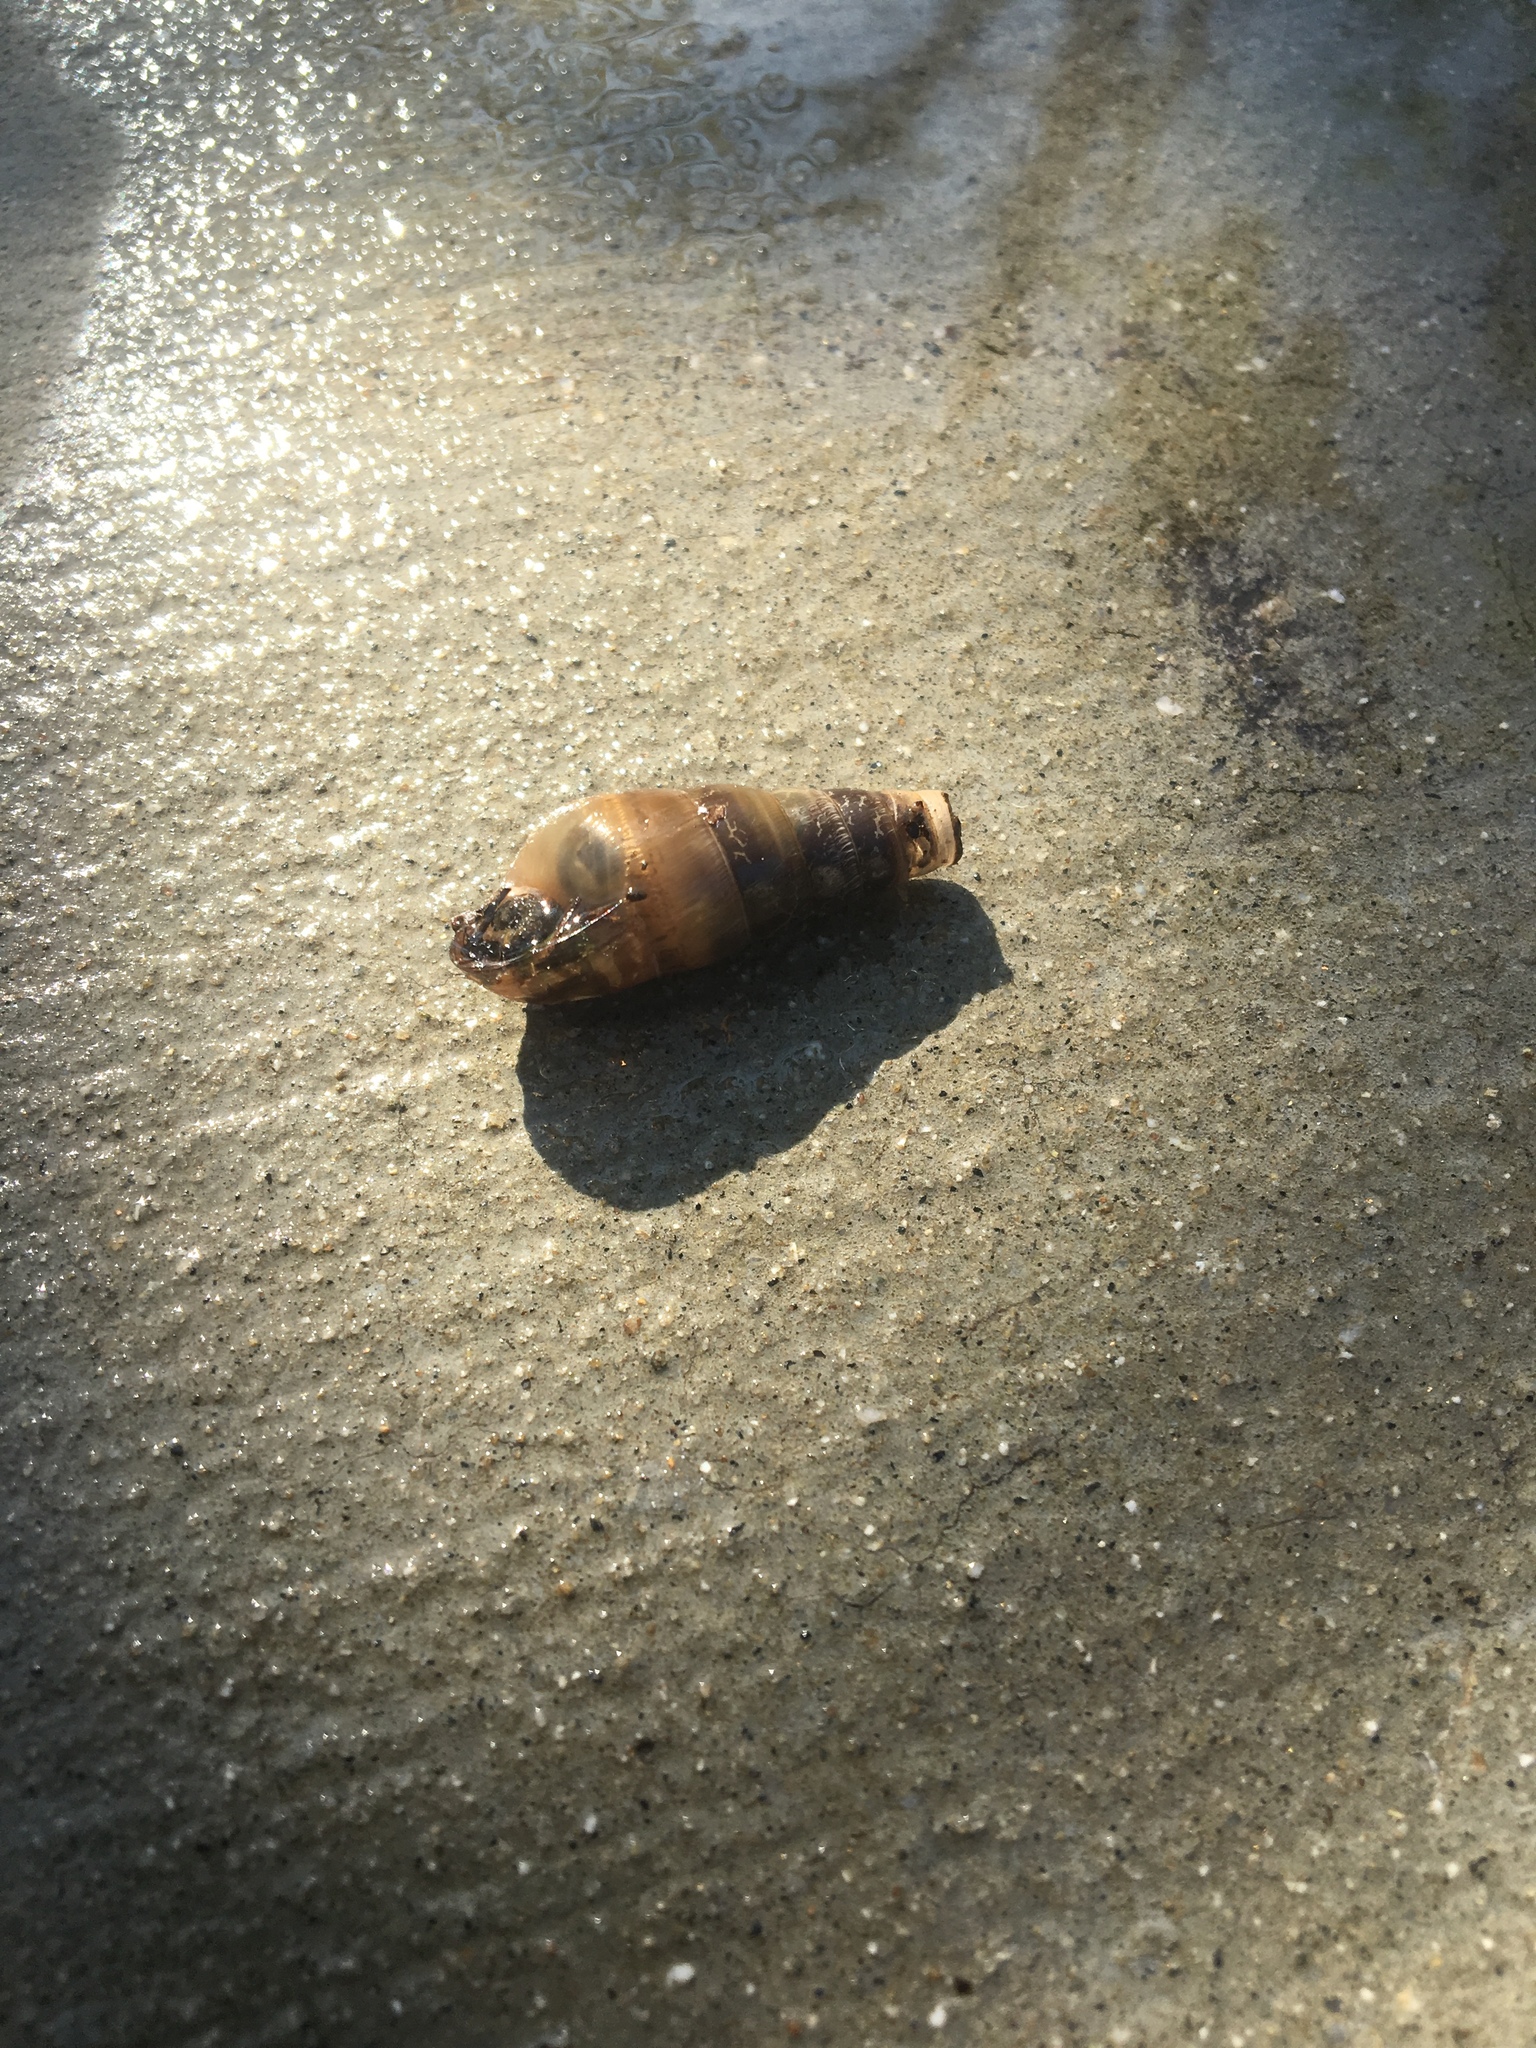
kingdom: Animalia
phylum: Mollusca
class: Gastropoda
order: Stylommatophora
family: Achatinidae
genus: Rumina
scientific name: Rumina decollata
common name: Decollate snail
